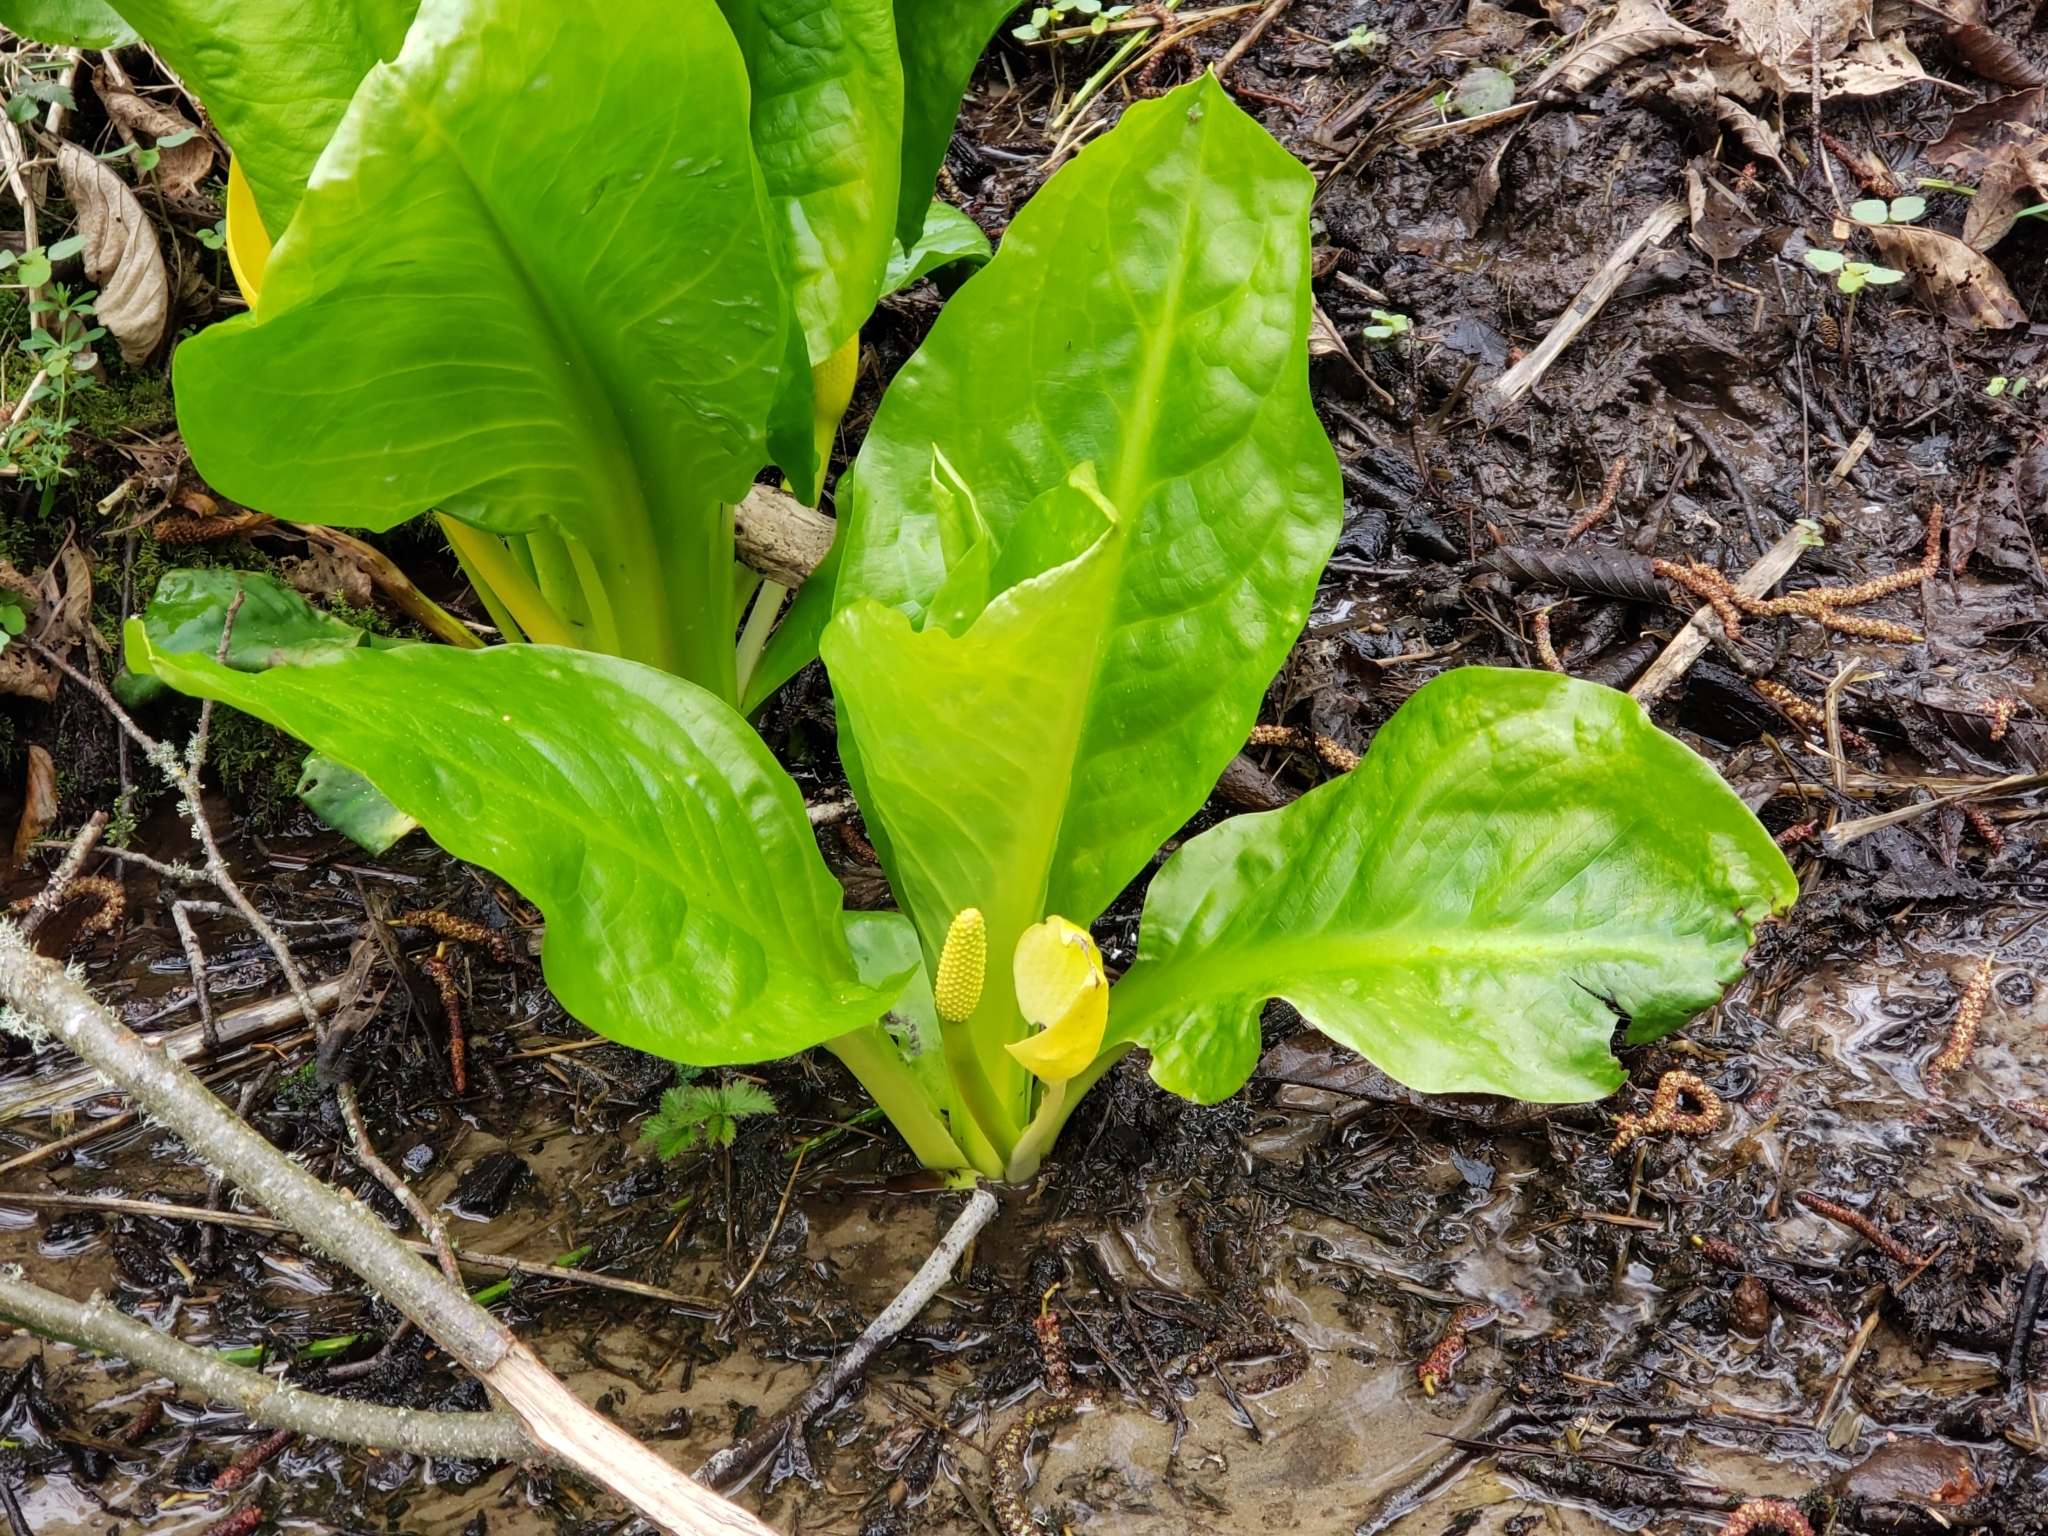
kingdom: Plantae
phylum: Tracheophyta
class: Liliopsida
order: Alismatales
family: Araceae
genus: Lysichiton
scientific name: Lysichiton americanus
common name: American skunk cabbage
